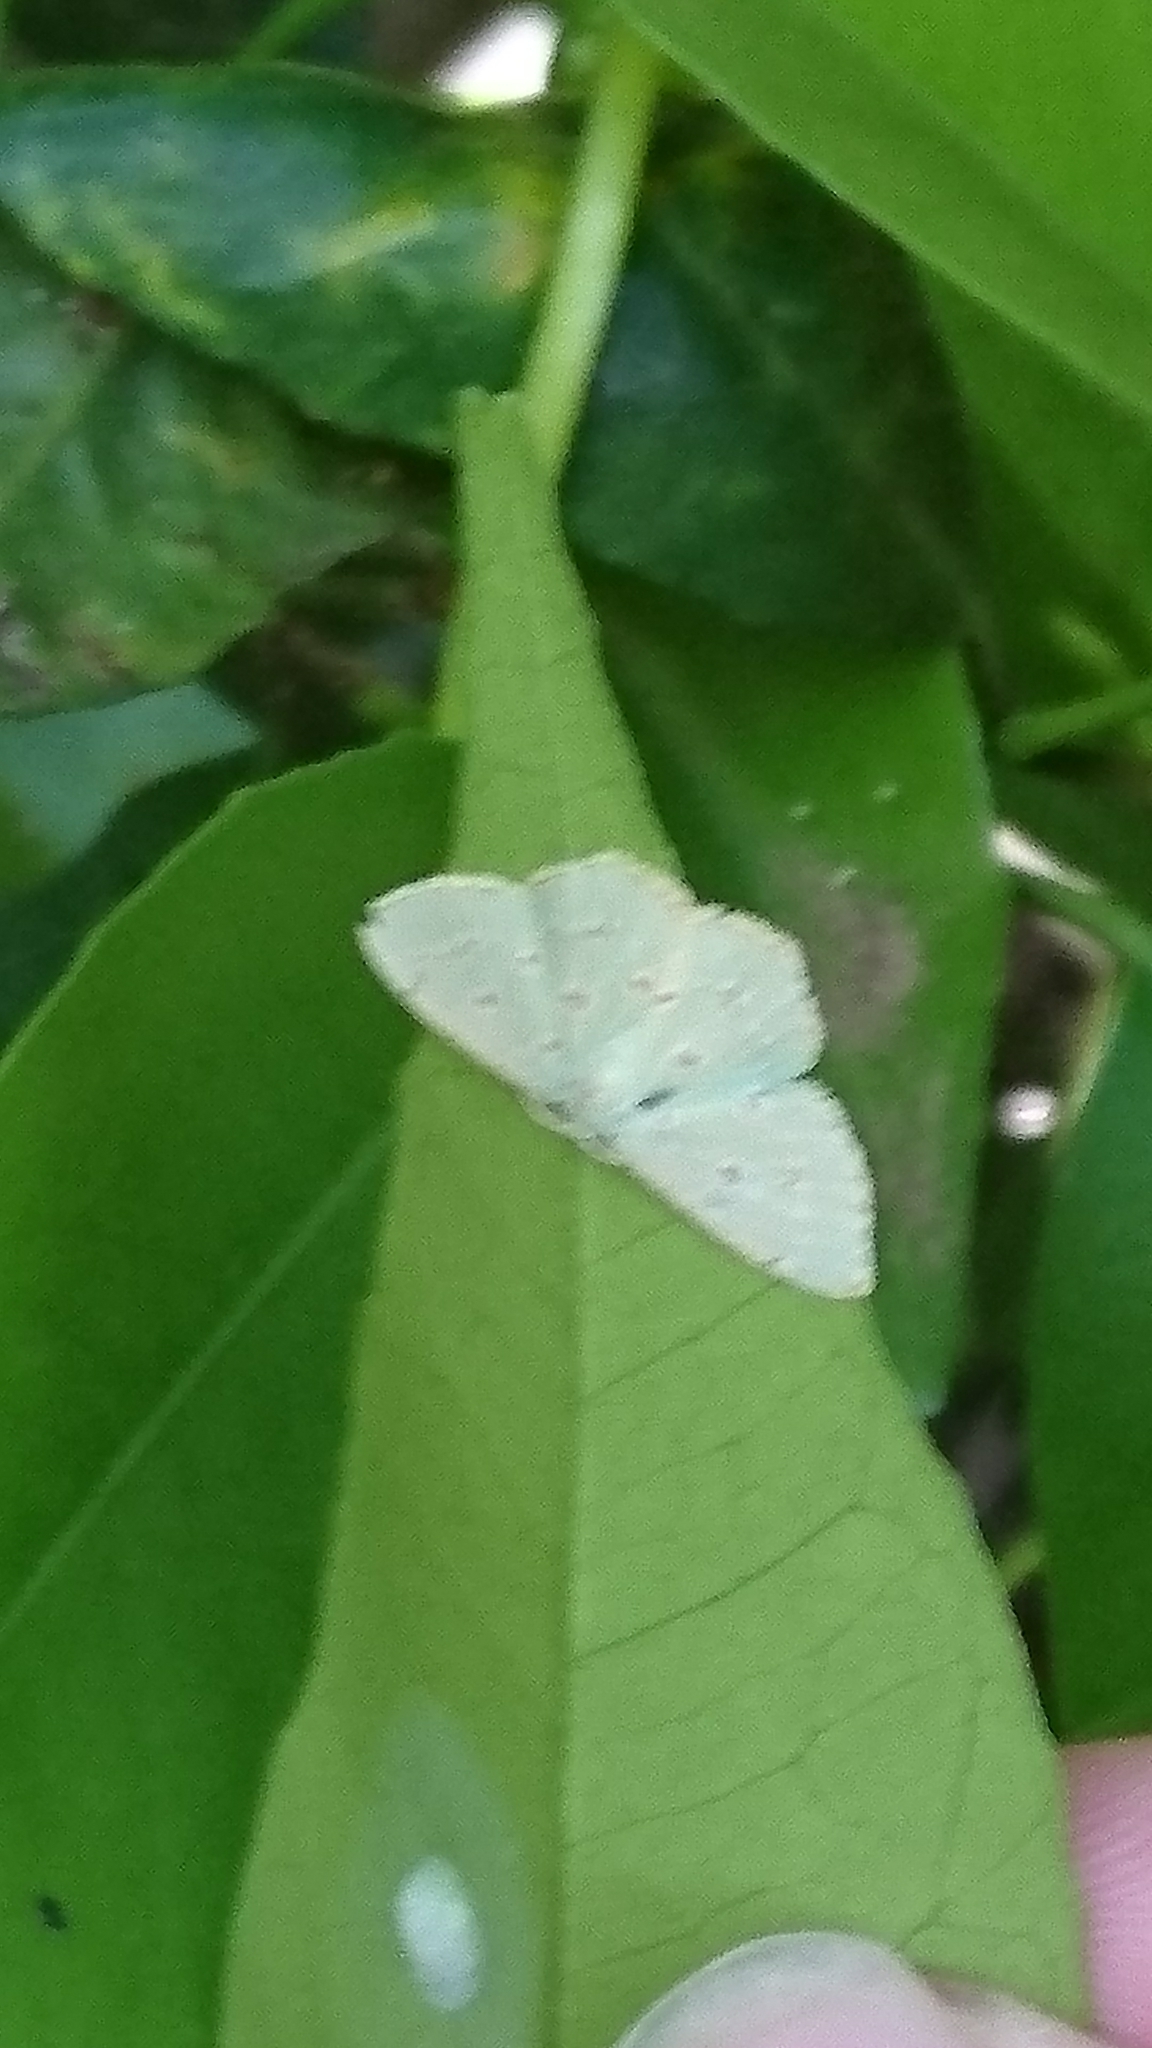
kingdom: Animalia
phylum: Arthropoda
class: Insecta
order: Lepidoptera
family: Geometridae
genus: Comostola
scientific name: Comostola laesaria
